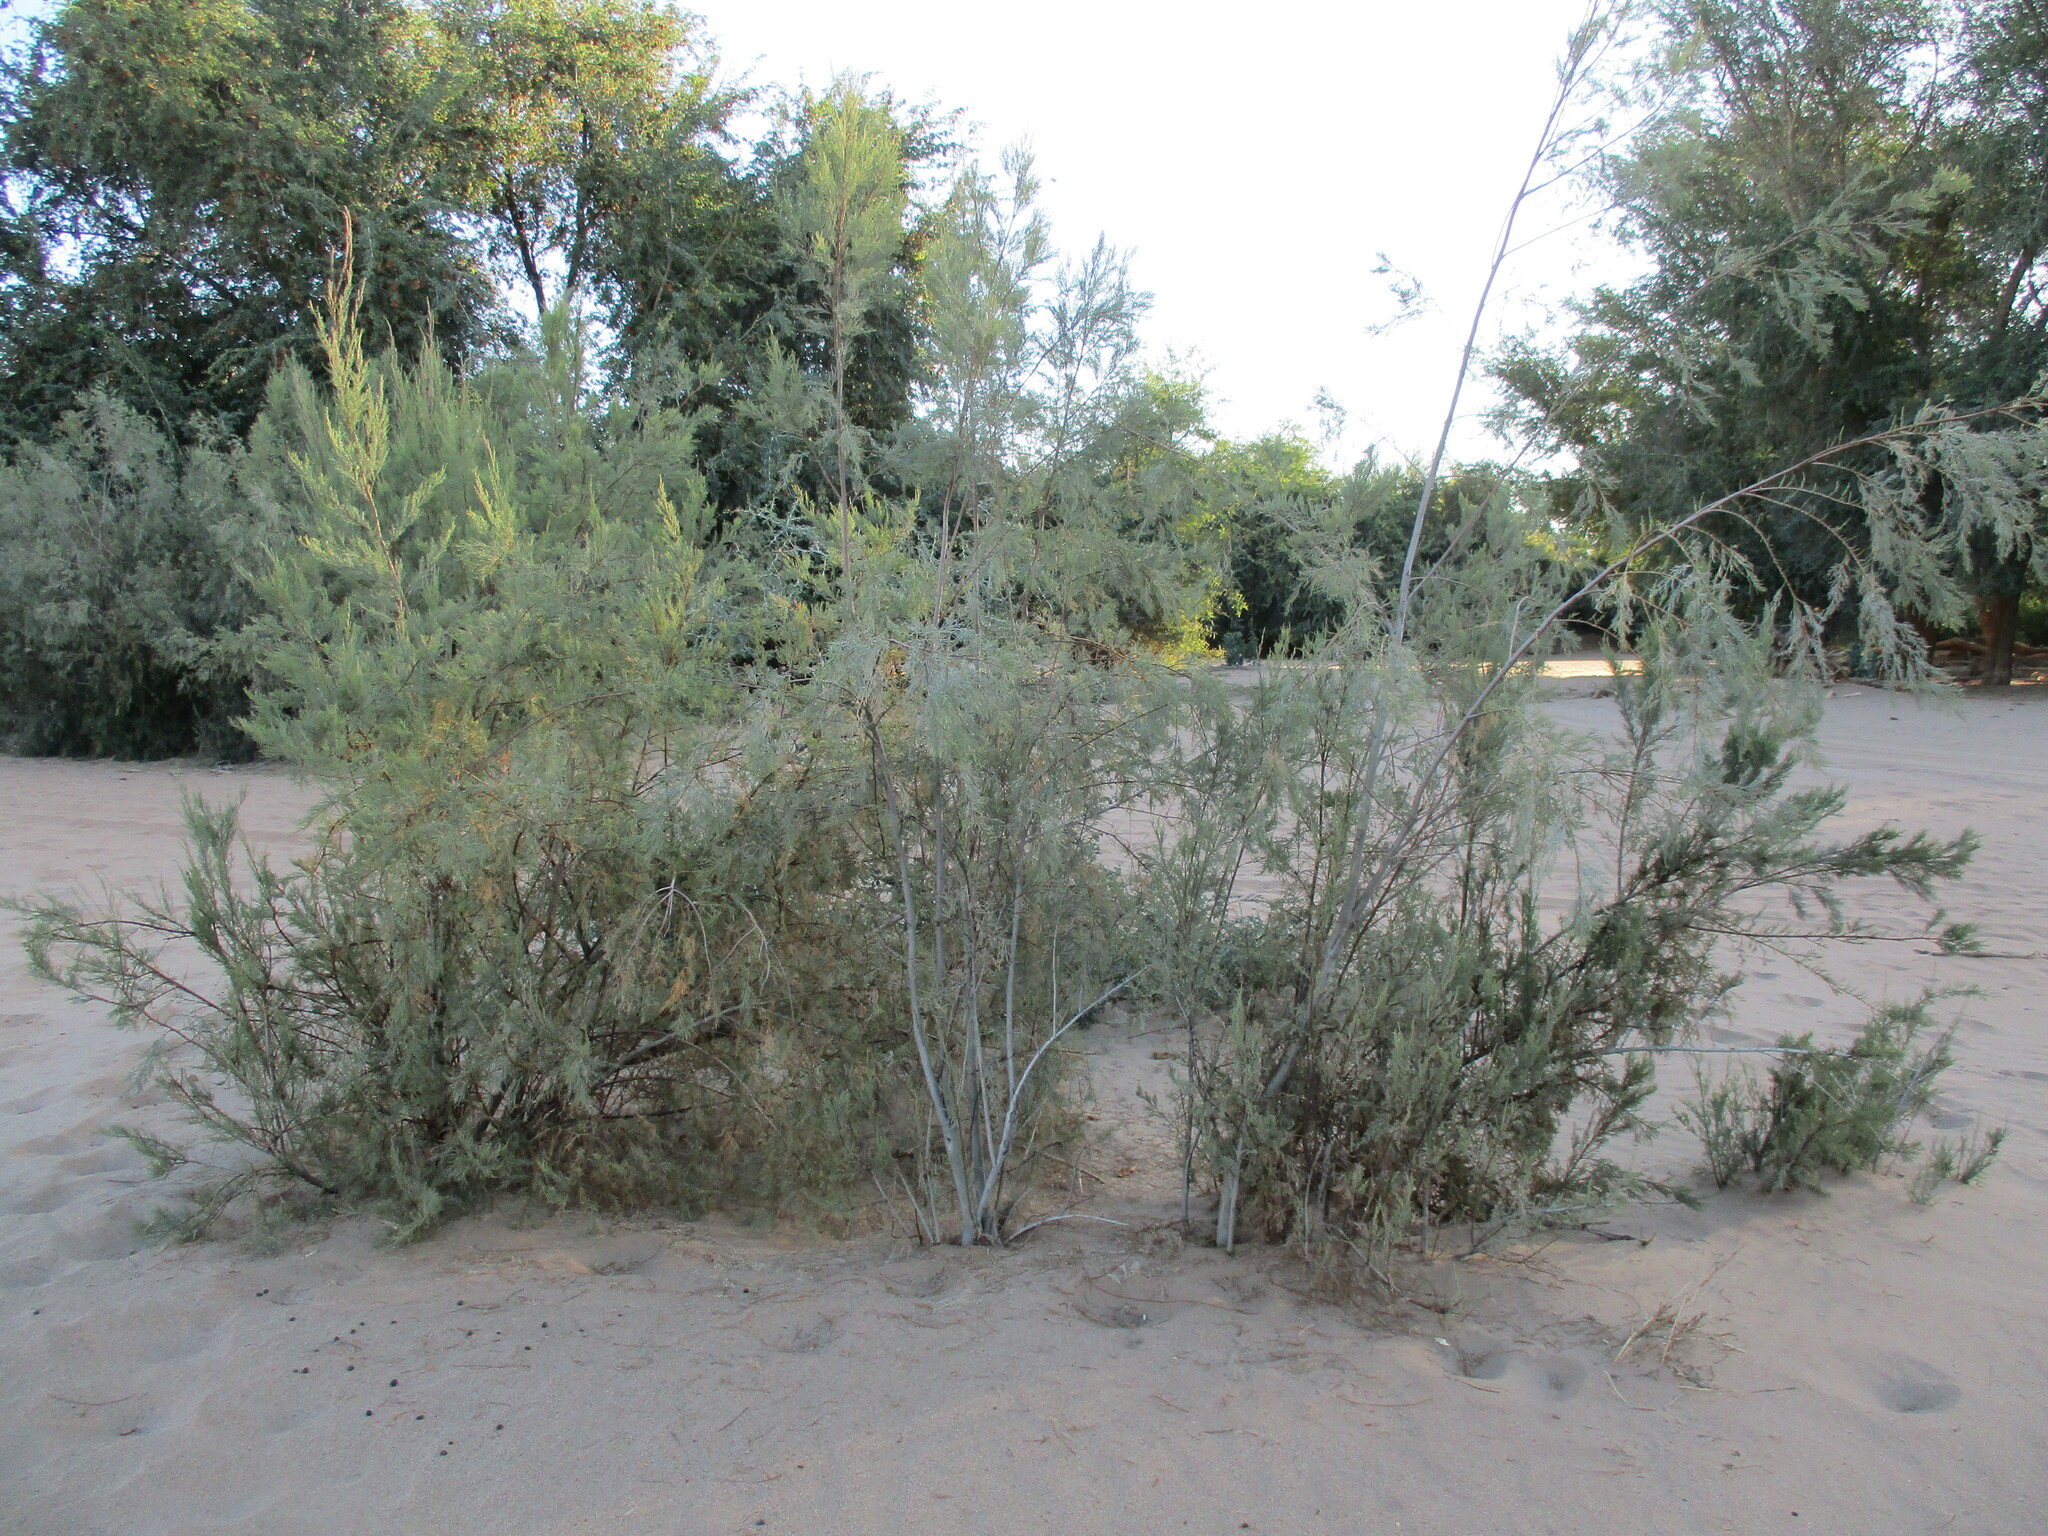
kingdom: Plantae
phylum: Tracheophyta
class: Magnoliopsida
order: Caryophyllales
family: Tamaricaceae
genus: Tamarix
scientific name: Tamarix usneoides
